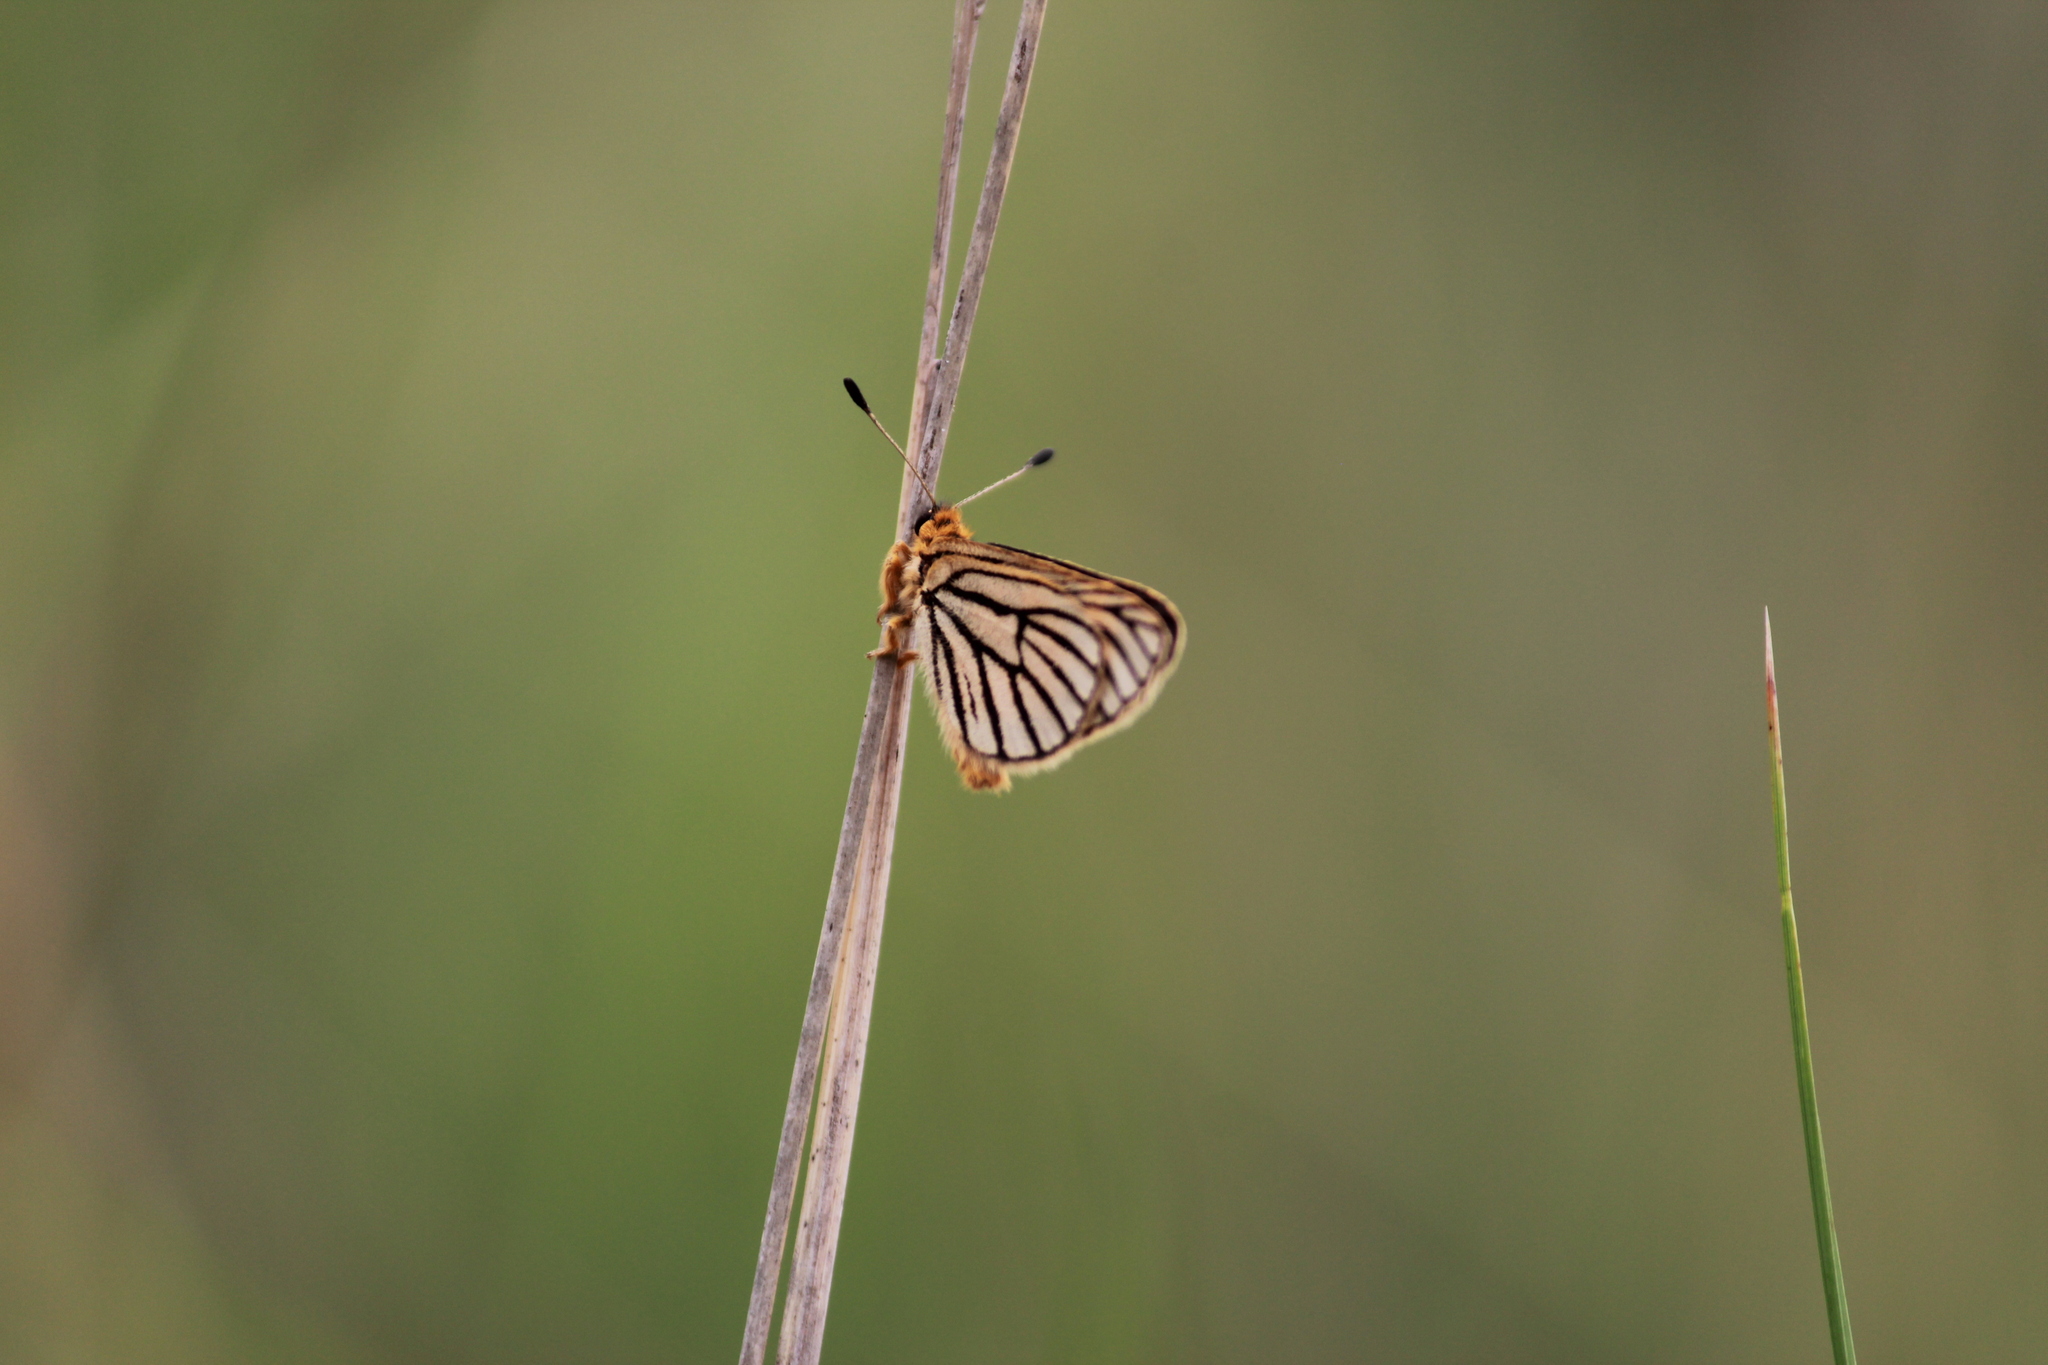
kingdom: Animalia
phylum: Arthropoda
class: Insecta
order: Lepidoptera
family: Lycaenidae
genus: Alaena
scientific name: Alaena amazoula
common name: Yellow zulu
